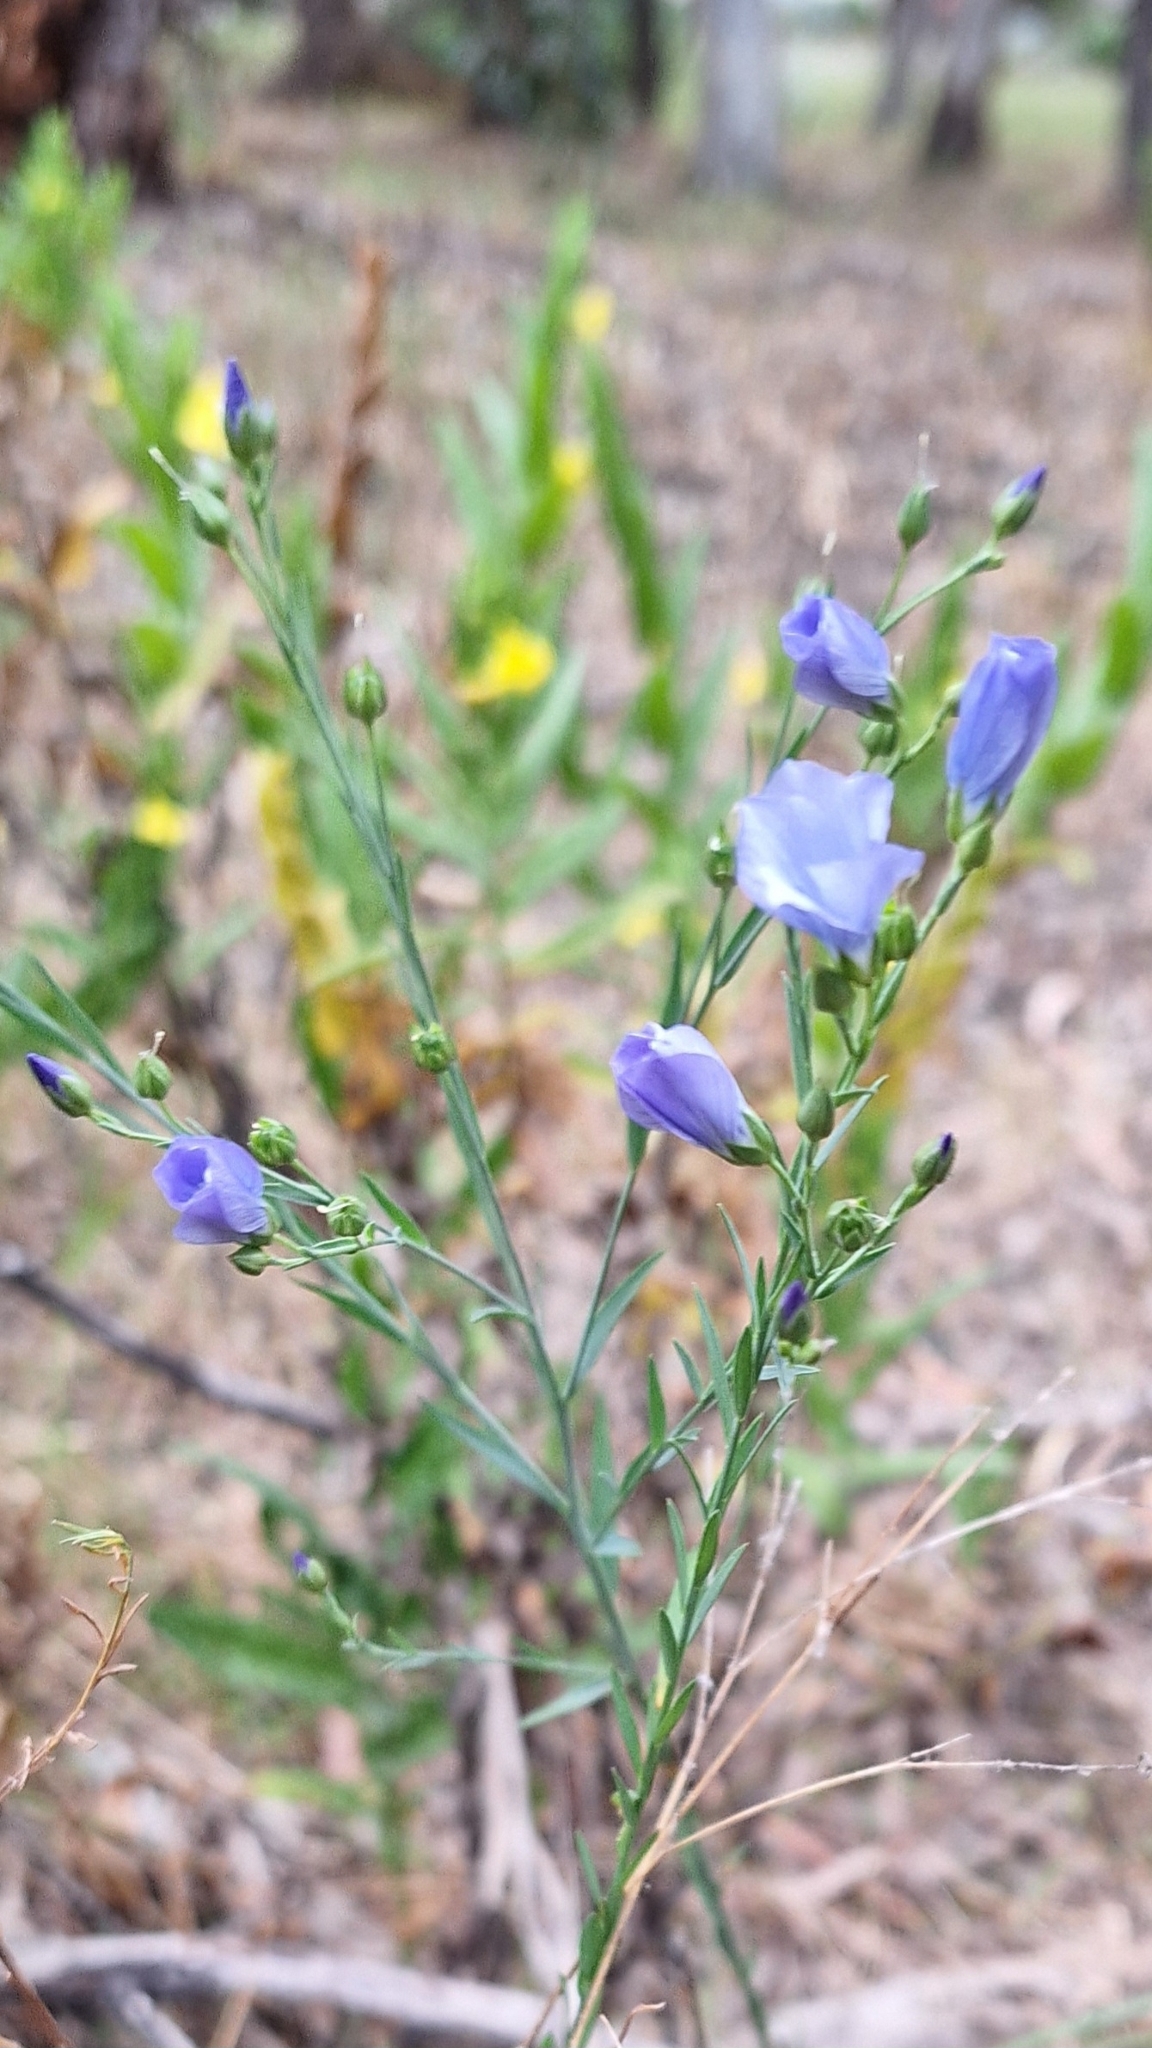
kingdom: Plantae
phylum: Tracheophyta
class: Magnoliopsida
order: Malpighiales
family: Linaceae
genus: Linum
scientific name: Linum marginale
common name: Wild flax
